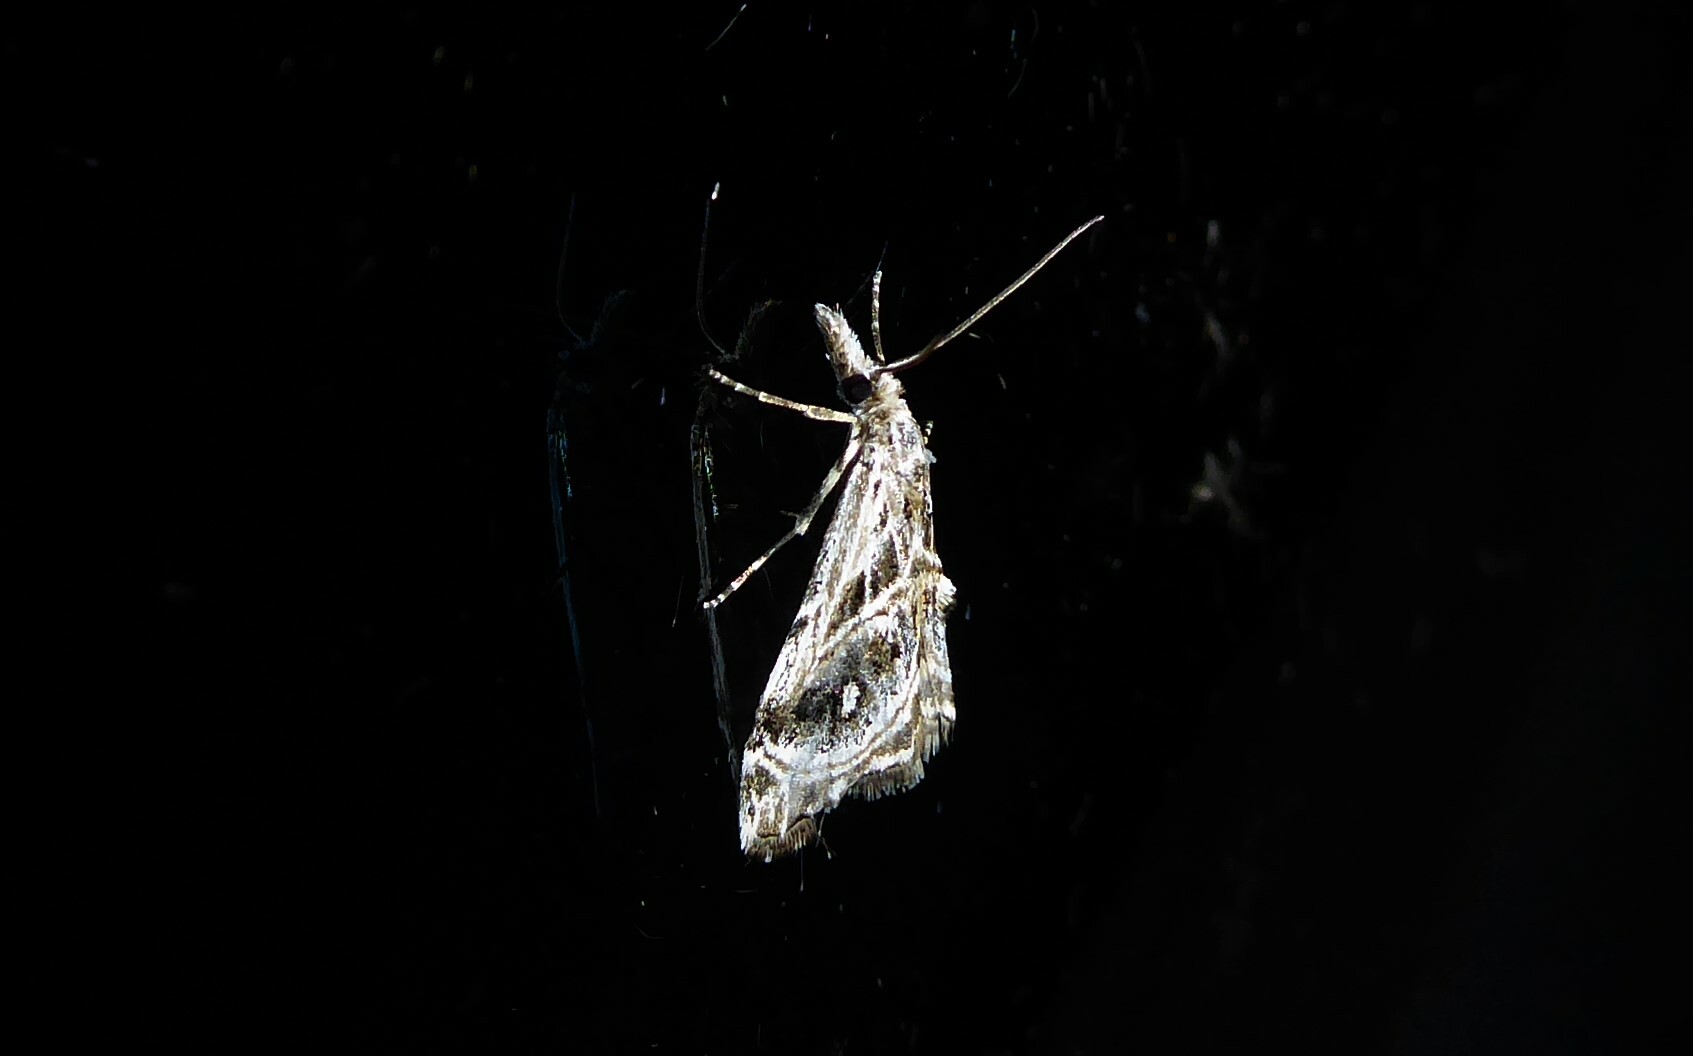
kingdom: Animalia
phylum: Arthropoda
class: Insecta
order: Lepidoptera
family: Crambidae
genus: Gadira
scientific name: Gadira acerella
